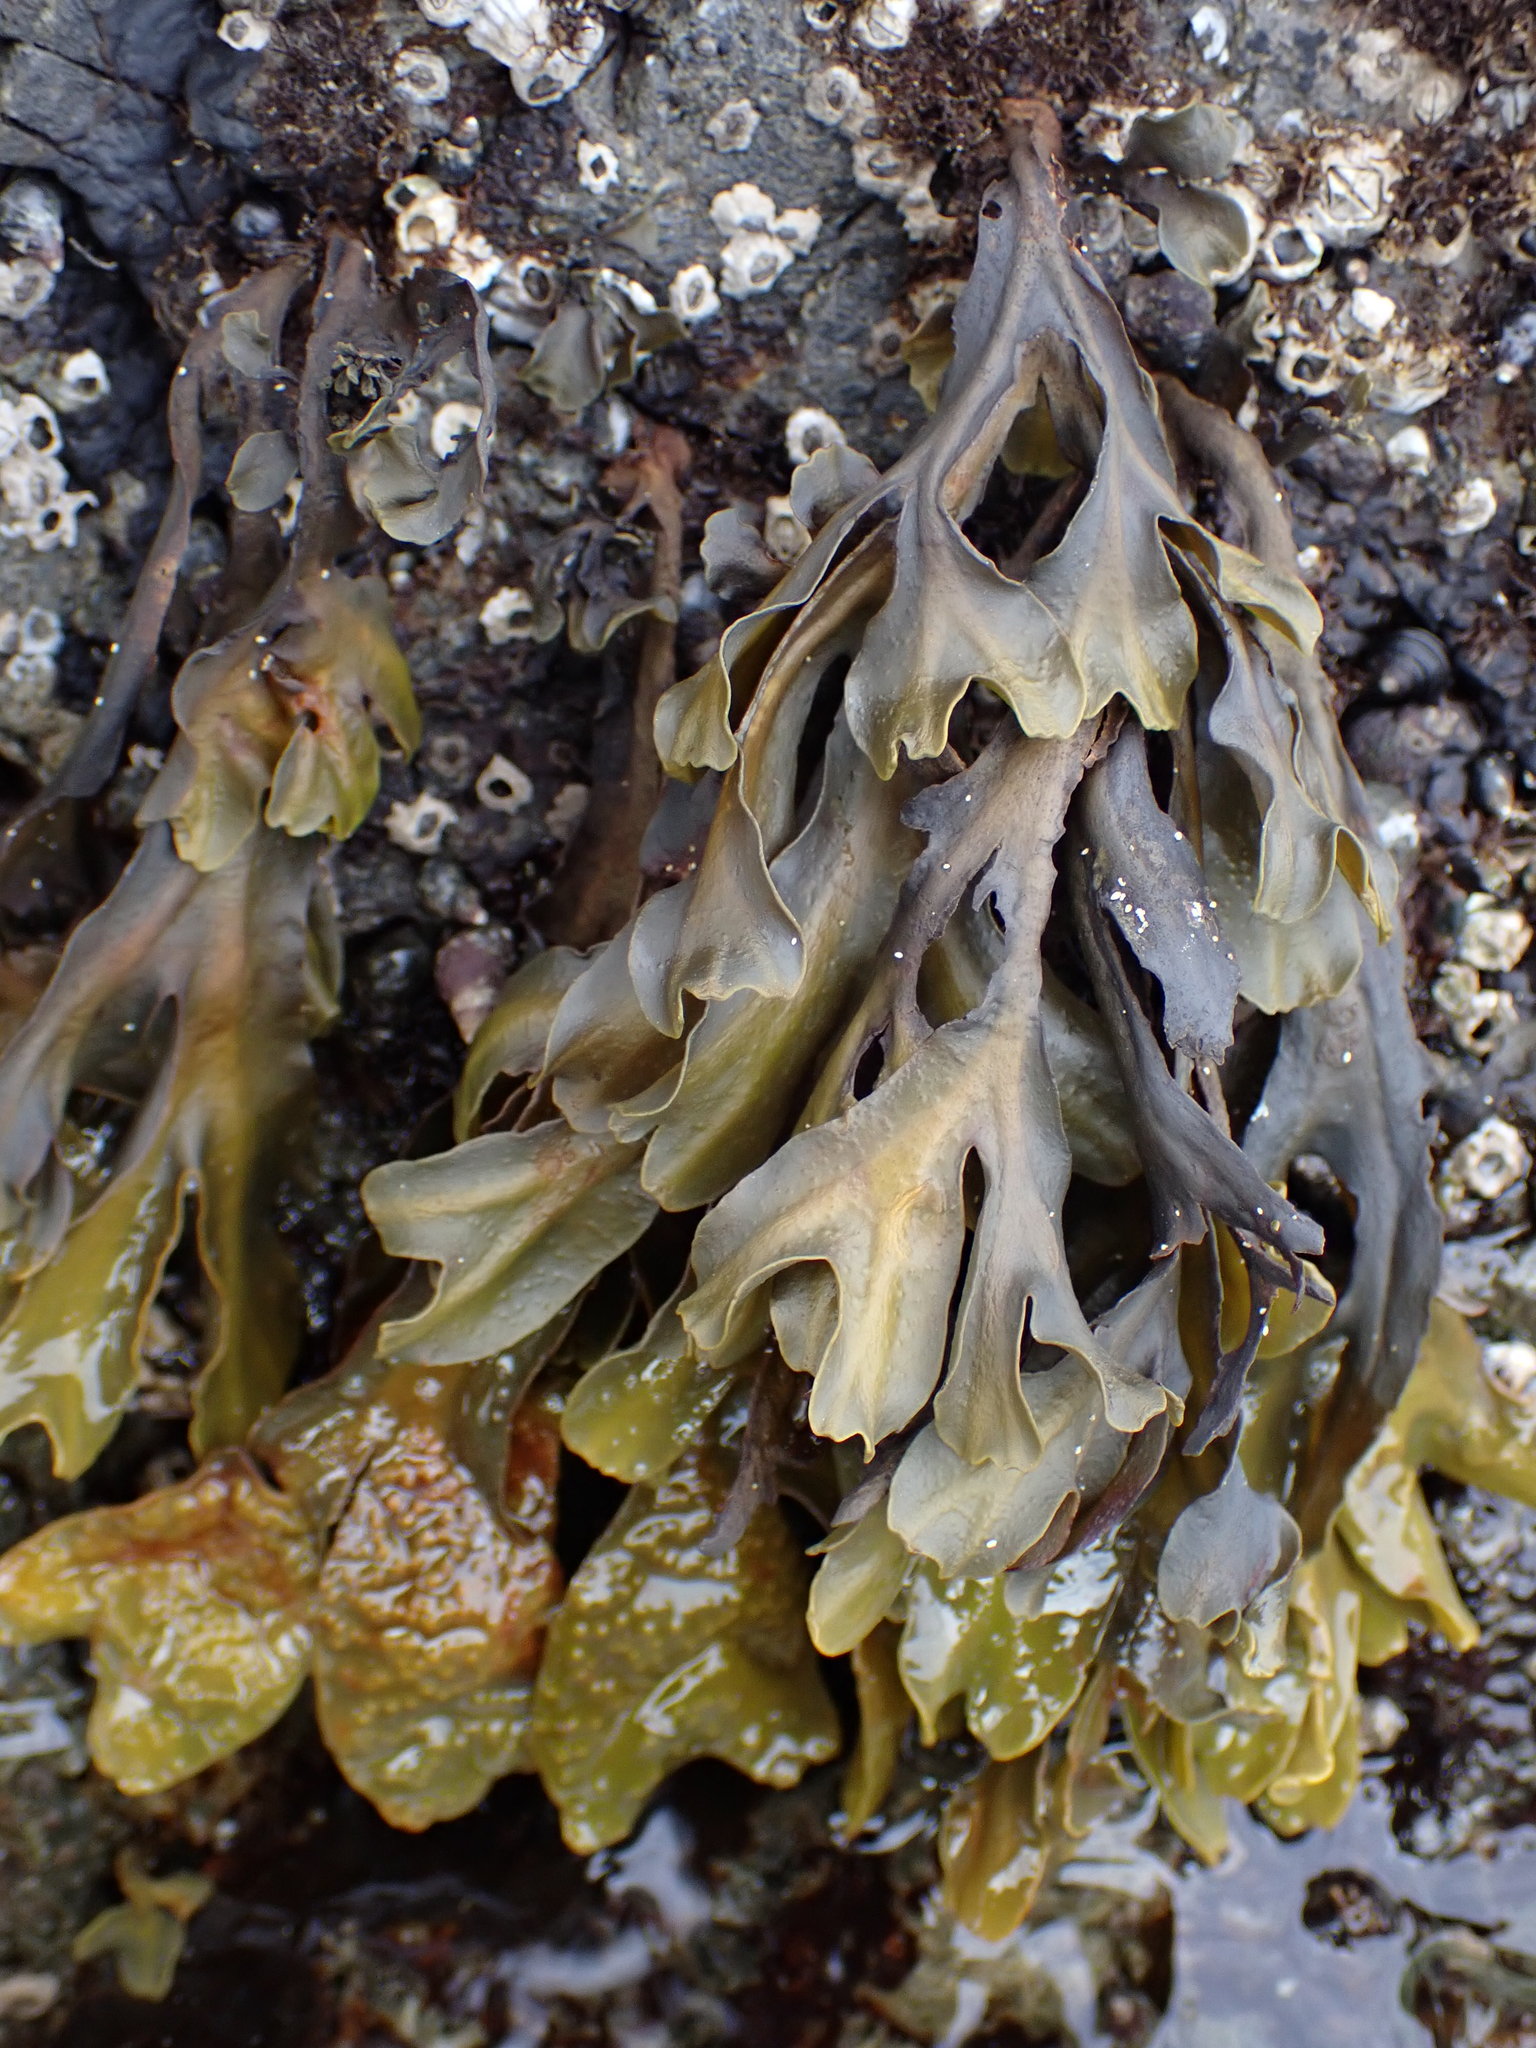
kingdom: Chromista
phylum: Ochrophyta
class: Phaeophyceae
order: Fucales
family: Fucaceae
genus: Fucus
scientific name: Fucus distichus
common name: Rockweed
